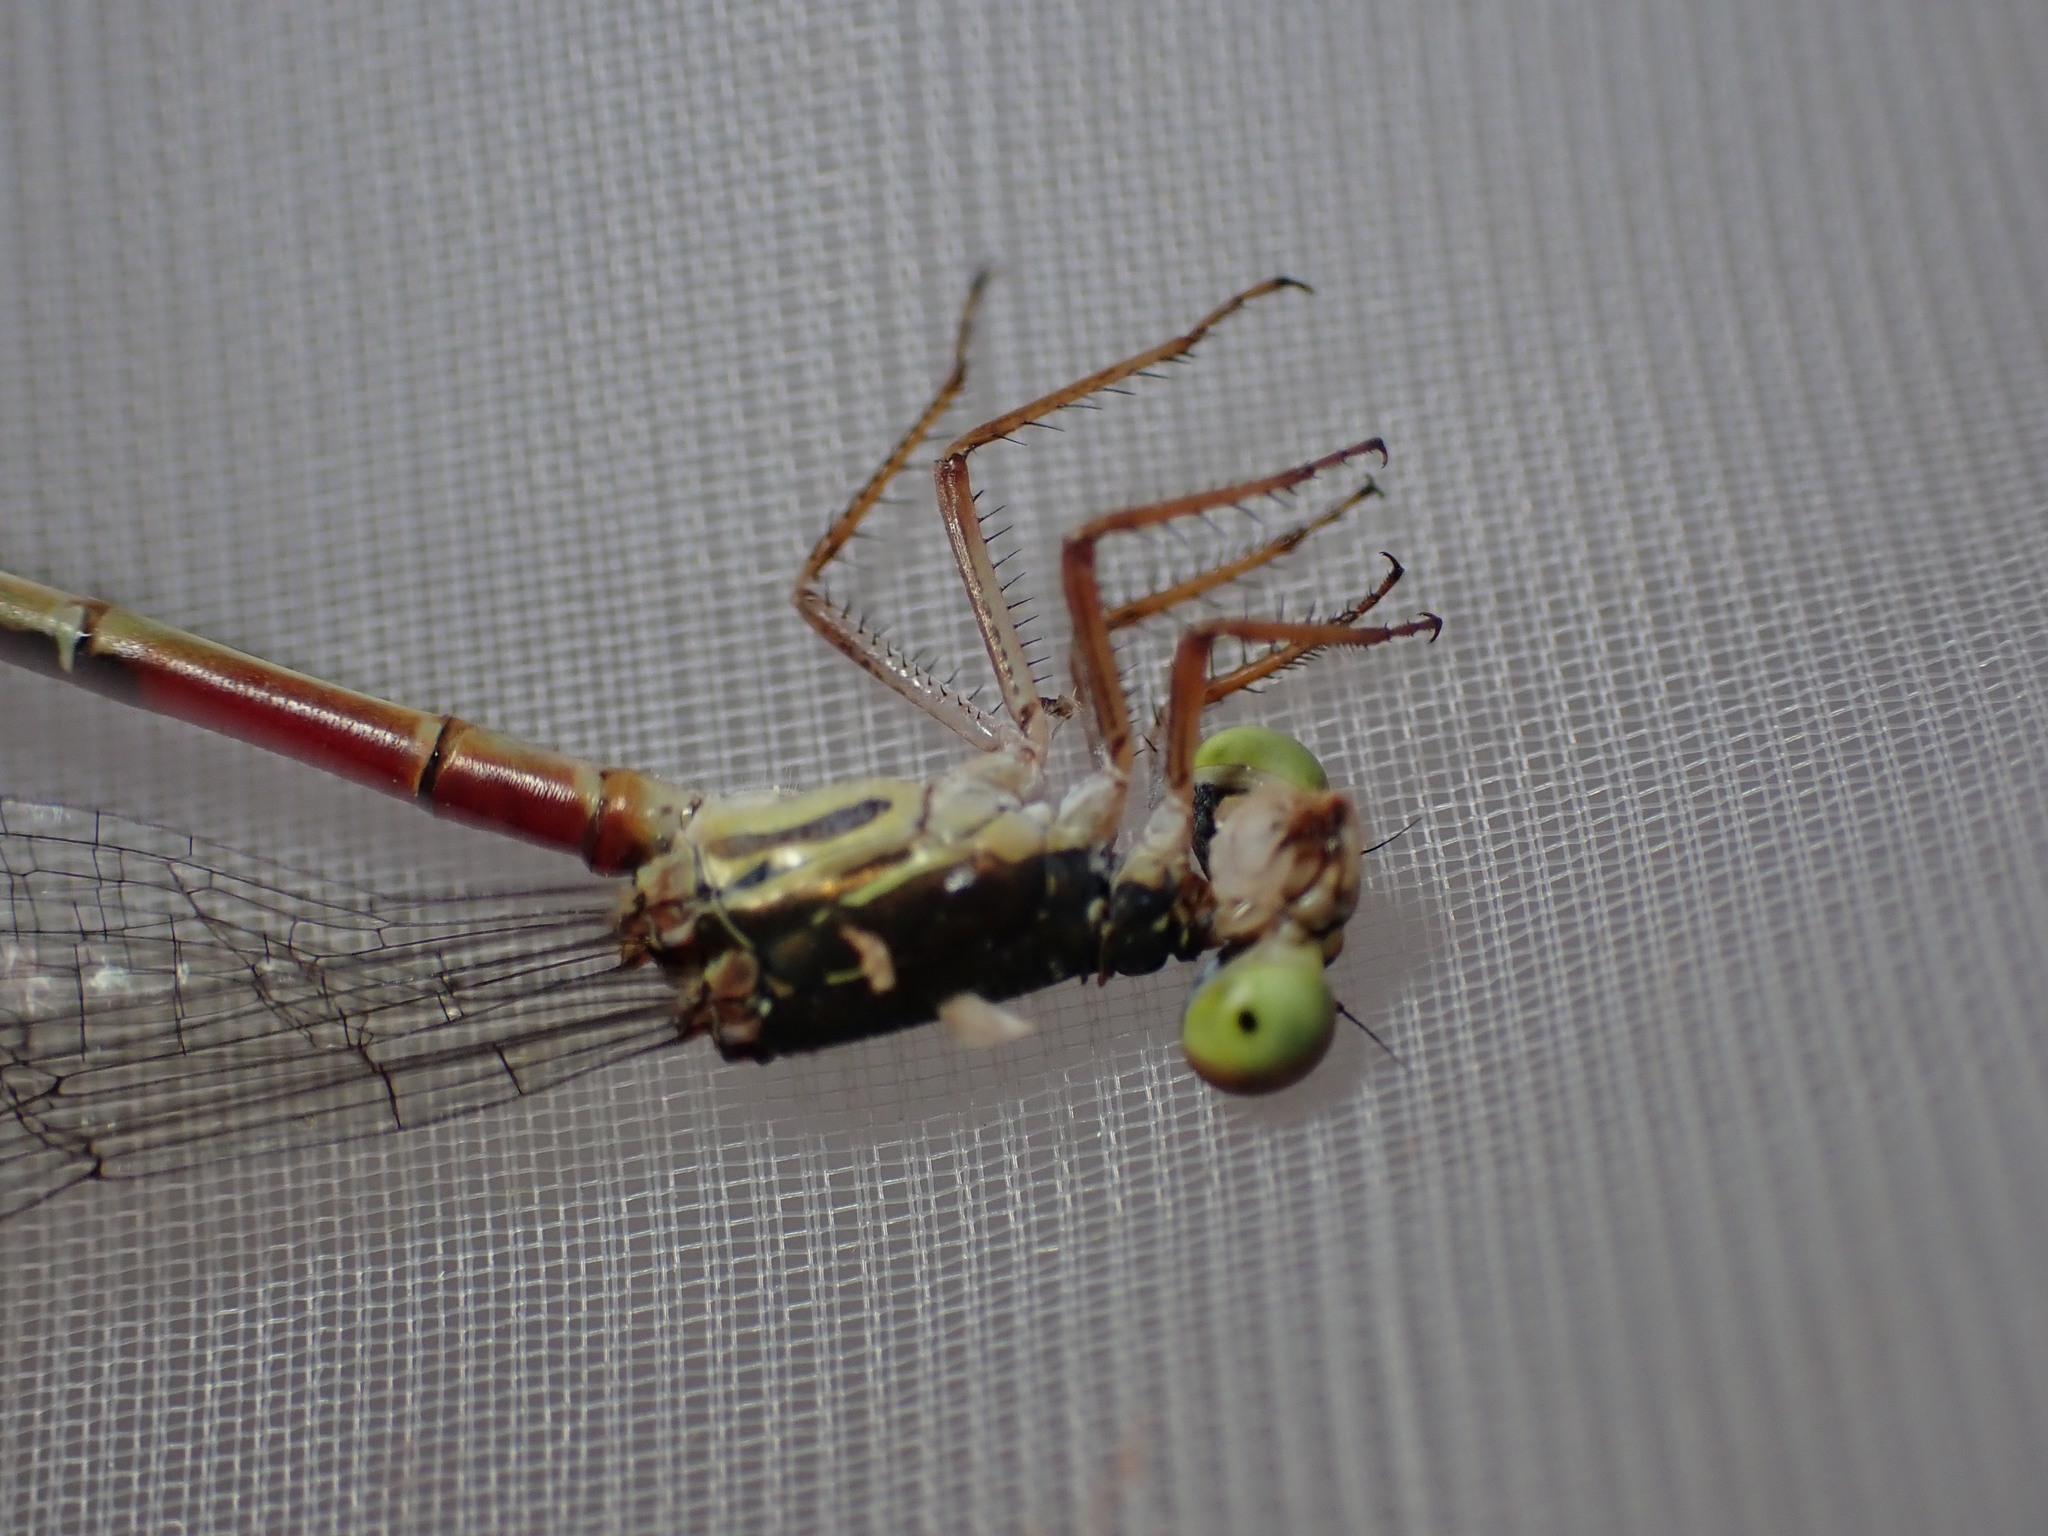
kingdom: Animalia
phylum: Arthropoda
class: Insecta
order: Odonata
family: Coenagrionidae
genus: Ceriagrion
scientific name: Ceriagrion tenellum
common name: Small red damselfly
